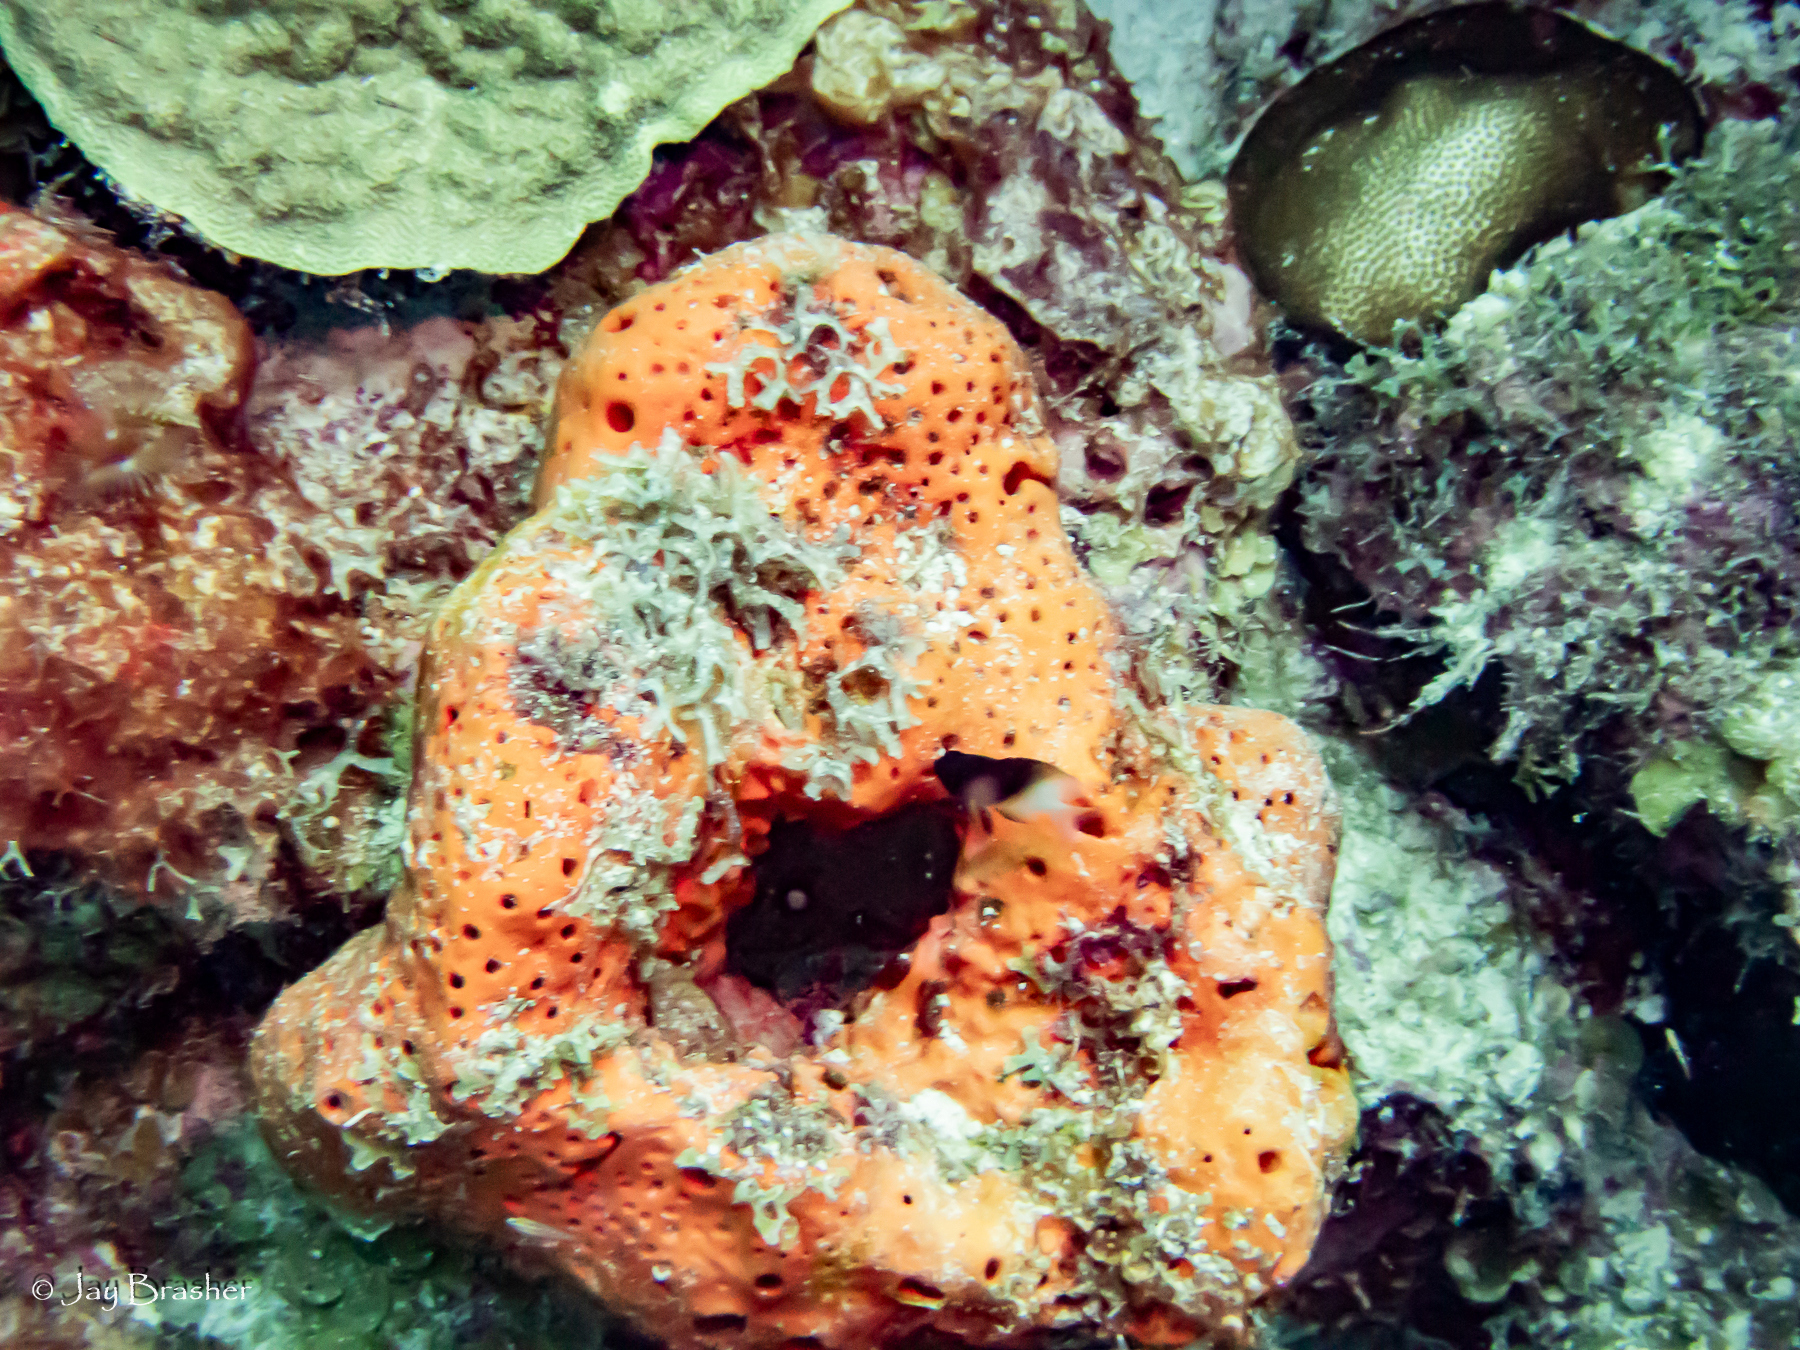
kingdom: Animalia
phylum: Porifera
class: Demospongiae
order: Agelasida
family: Agelasidae
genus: Agelas
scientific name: Agelas sventres
